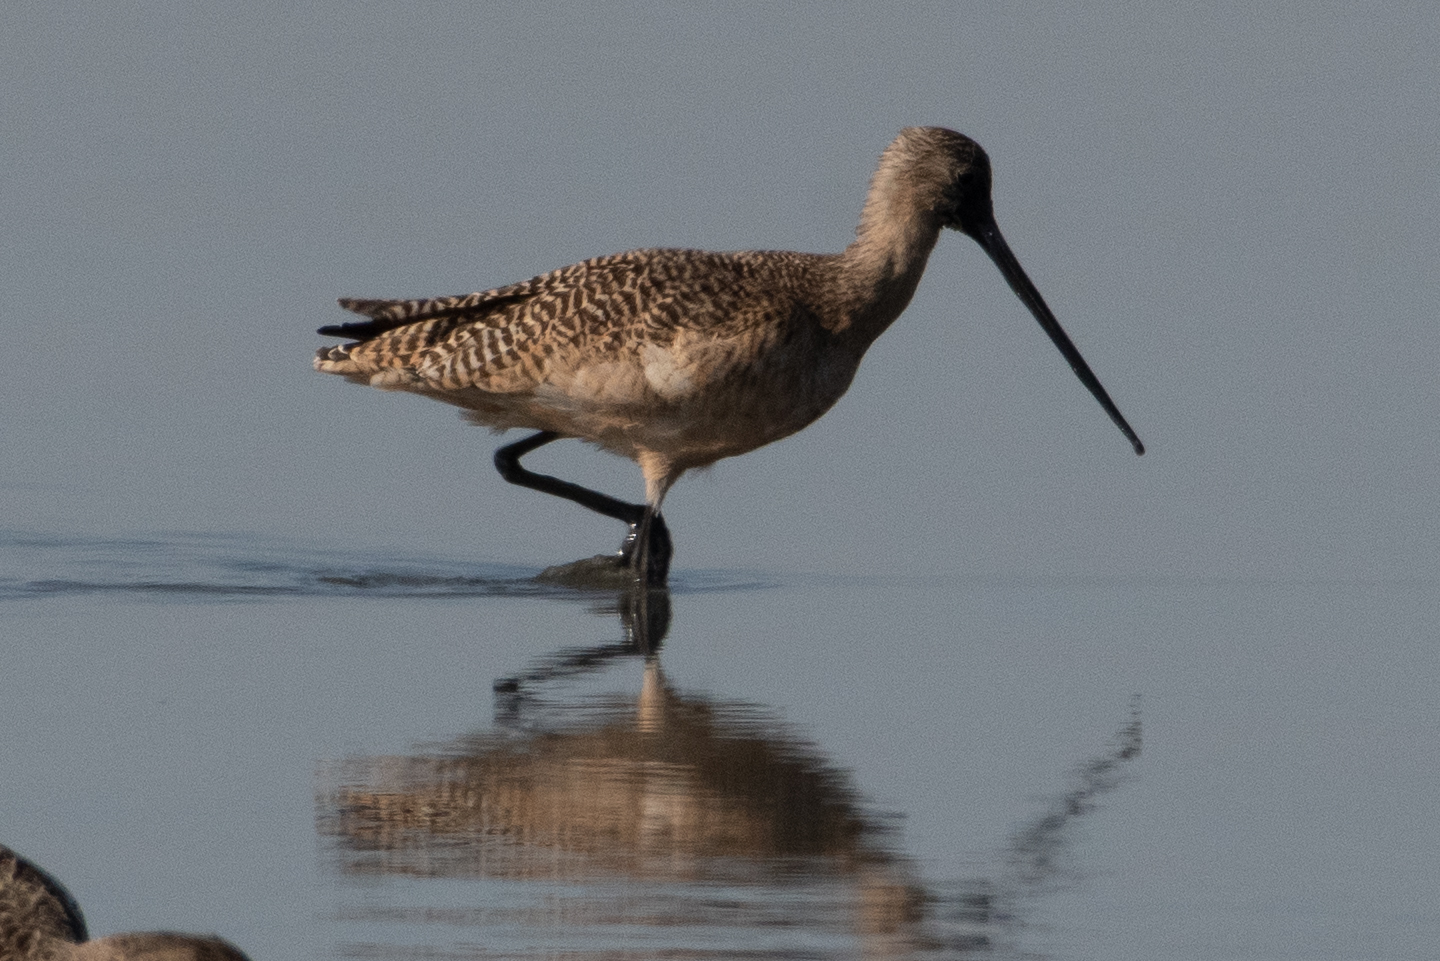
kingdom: Animalia
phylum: Chordata
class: Aves
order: Charadriiformes
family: Scolopacidae
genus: Limosa
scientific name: Limosa fedoa
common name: Marbled godwit
